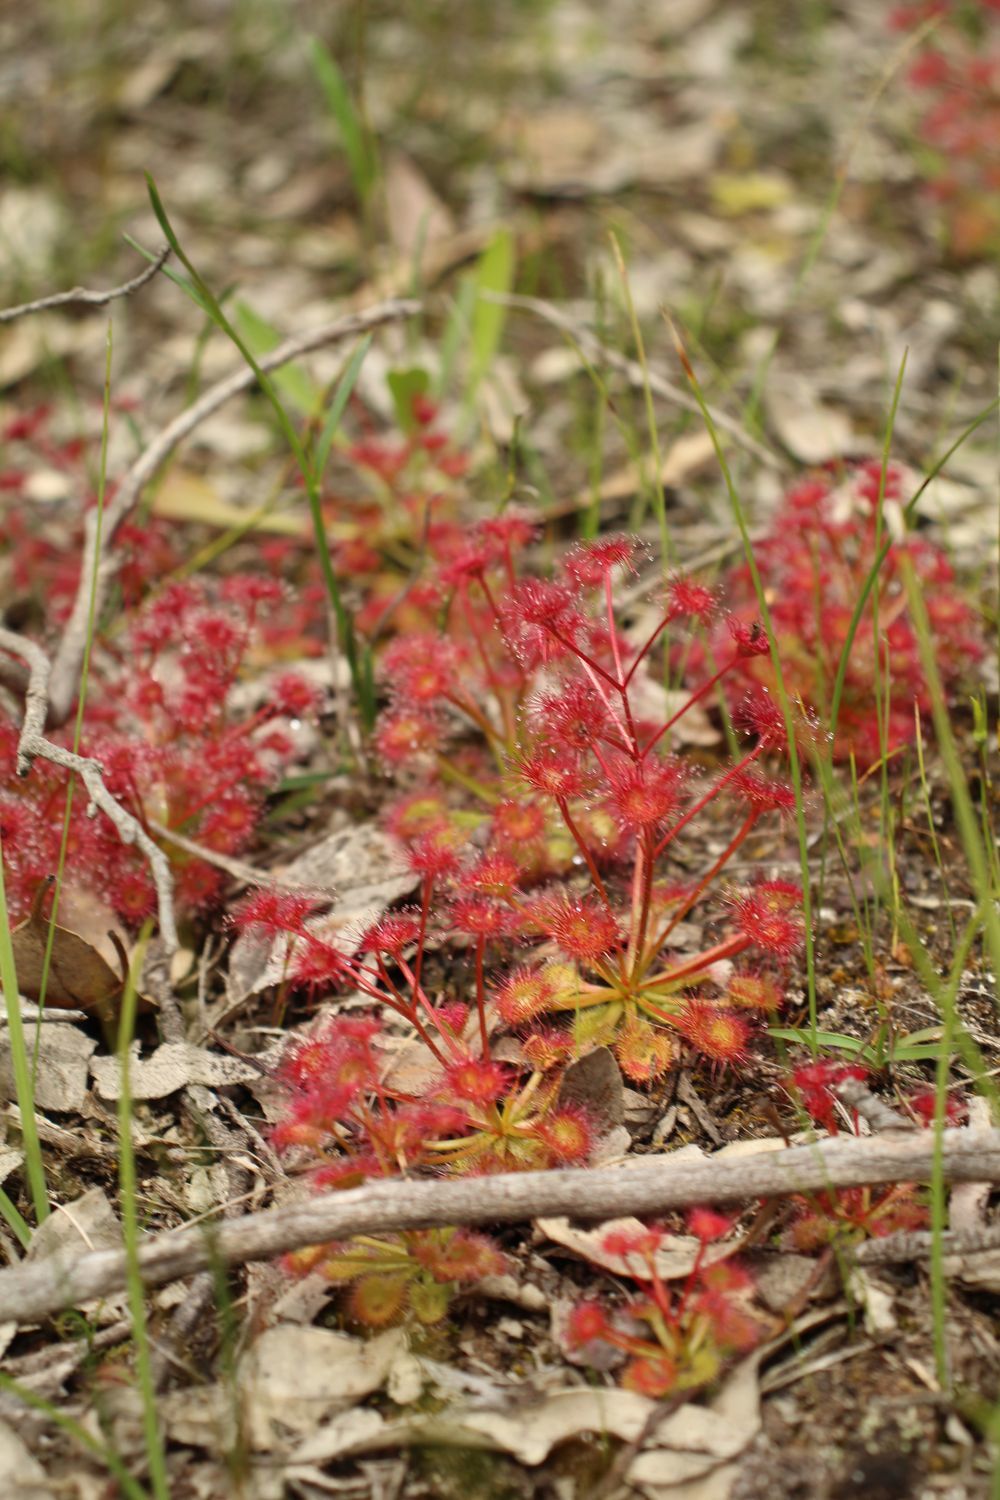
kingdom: Plantae
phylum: Tracheophyta
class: Magnoliopsida
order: Caryophyllales
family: Droseraceae
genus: Drosera
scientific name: Drosera stolonifera
